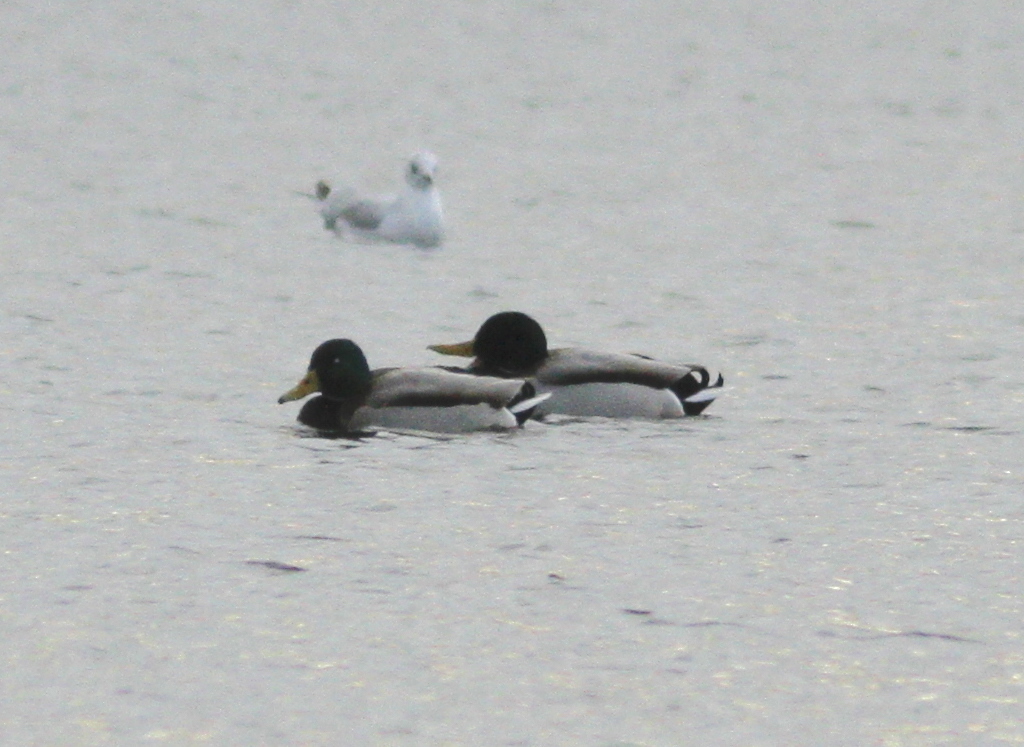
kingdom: Animalia
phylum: Chordata
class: Aves
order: Anseriformes
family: Anatidae
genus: Anas
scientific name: Anas platyrhynchos
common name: Mallard
